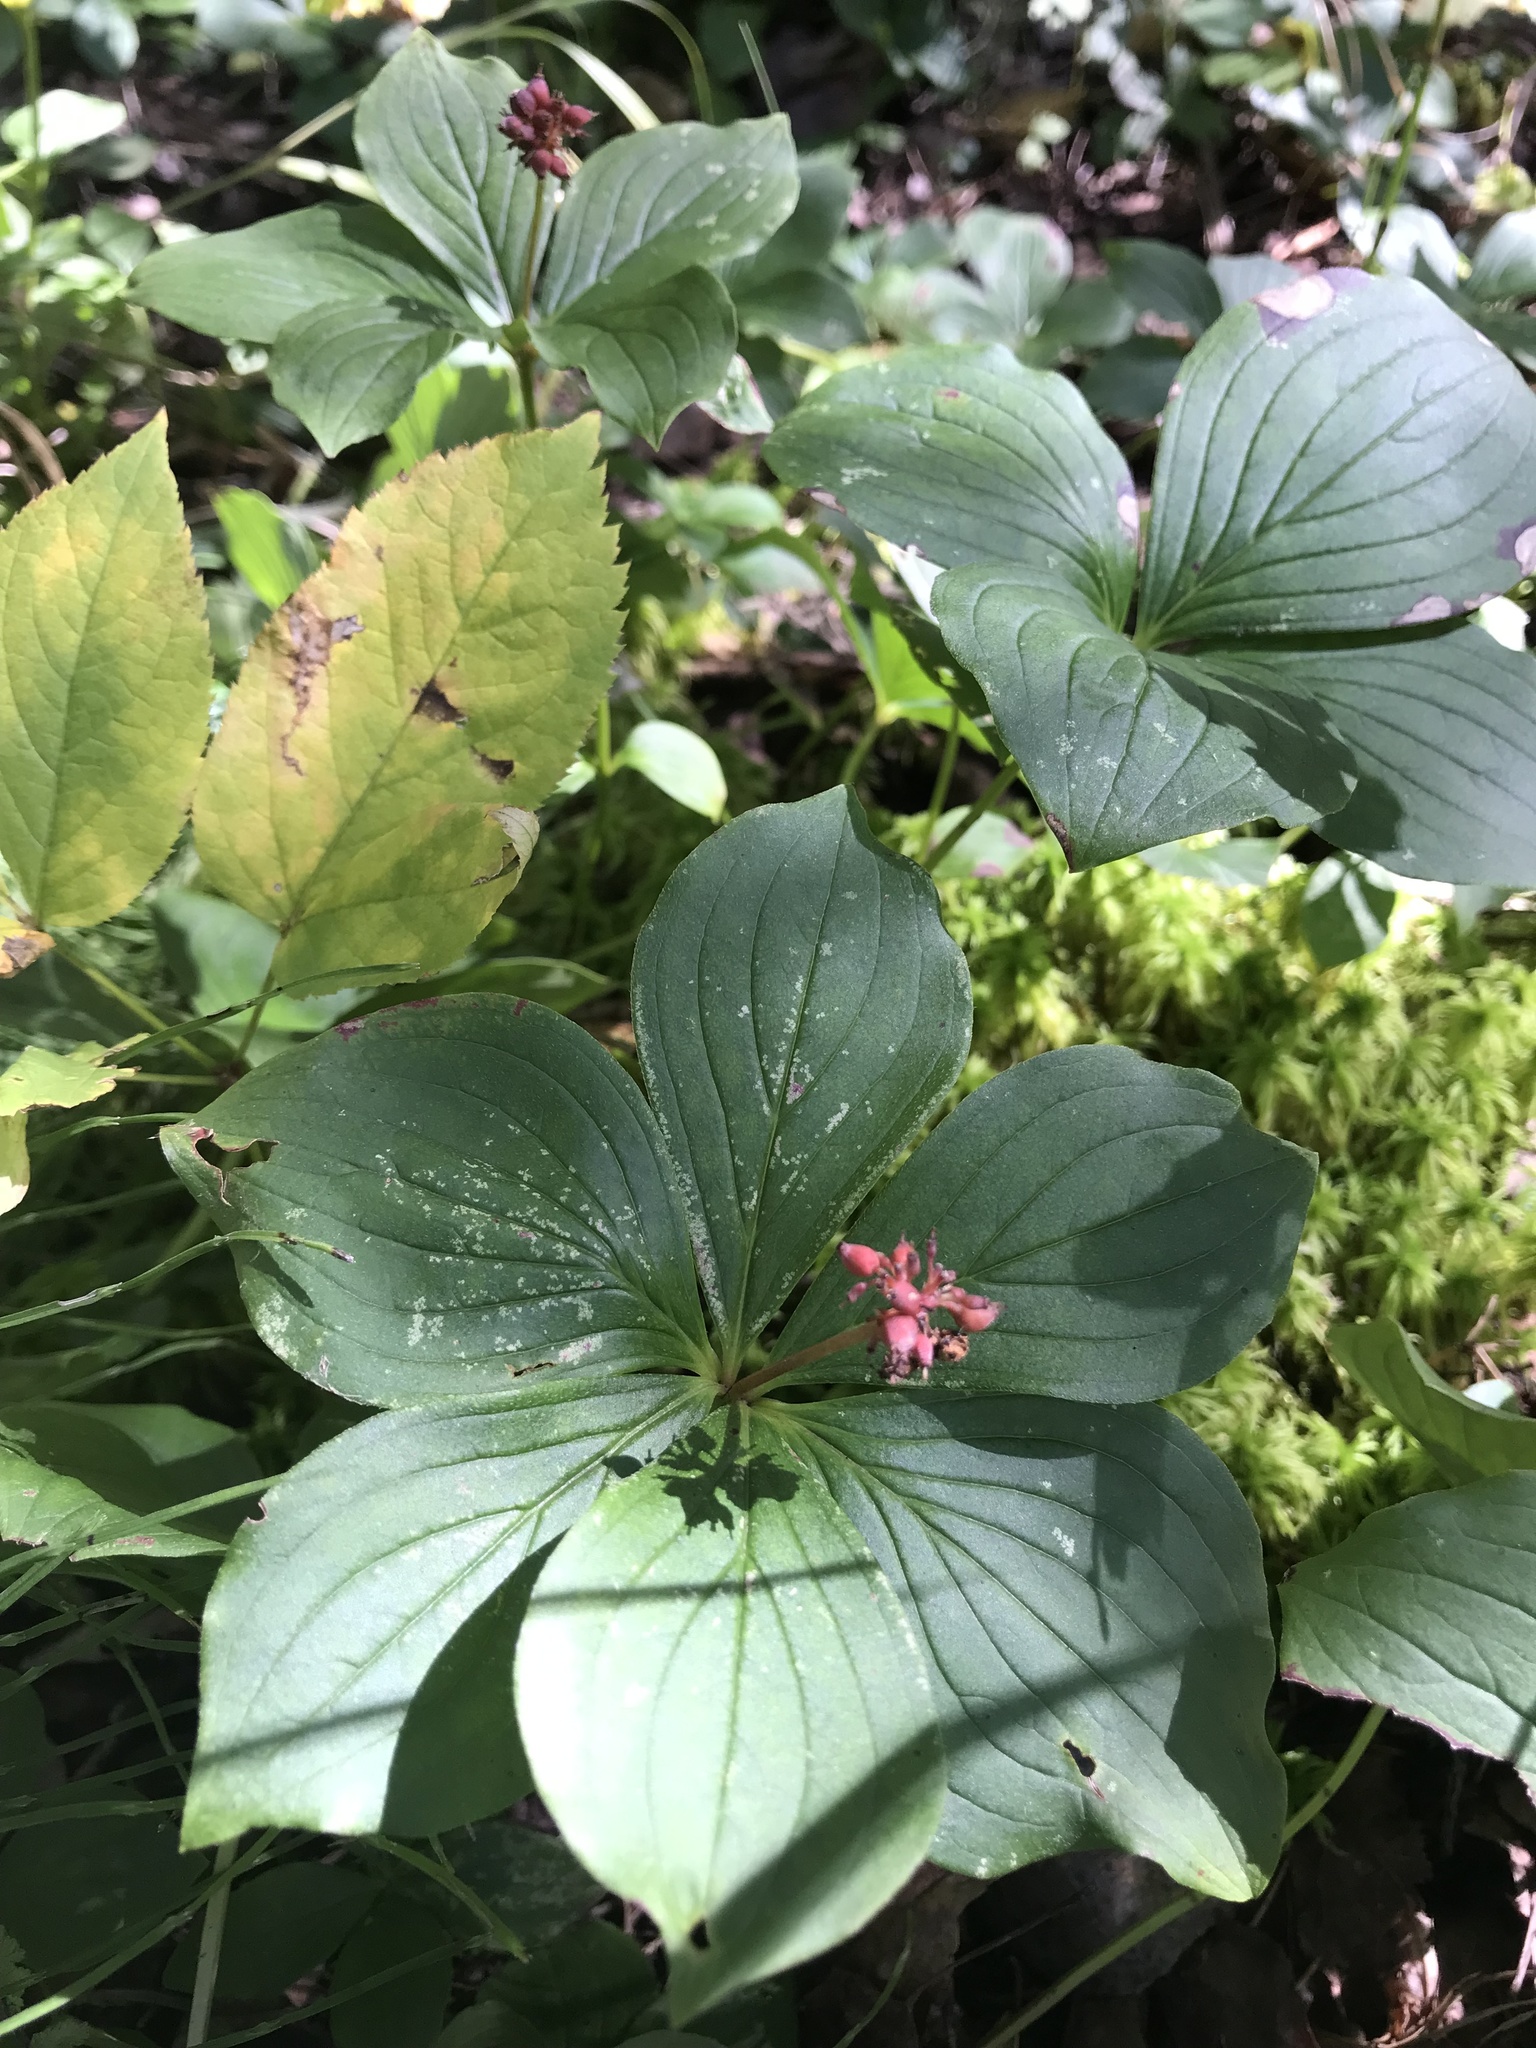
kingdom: Plantae
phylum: Tracheophyta
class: Magnoliopsida
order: Cornales
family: Cornaceae
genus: Cornus
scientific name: Cornus canadensis
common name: Creeping dogwood
